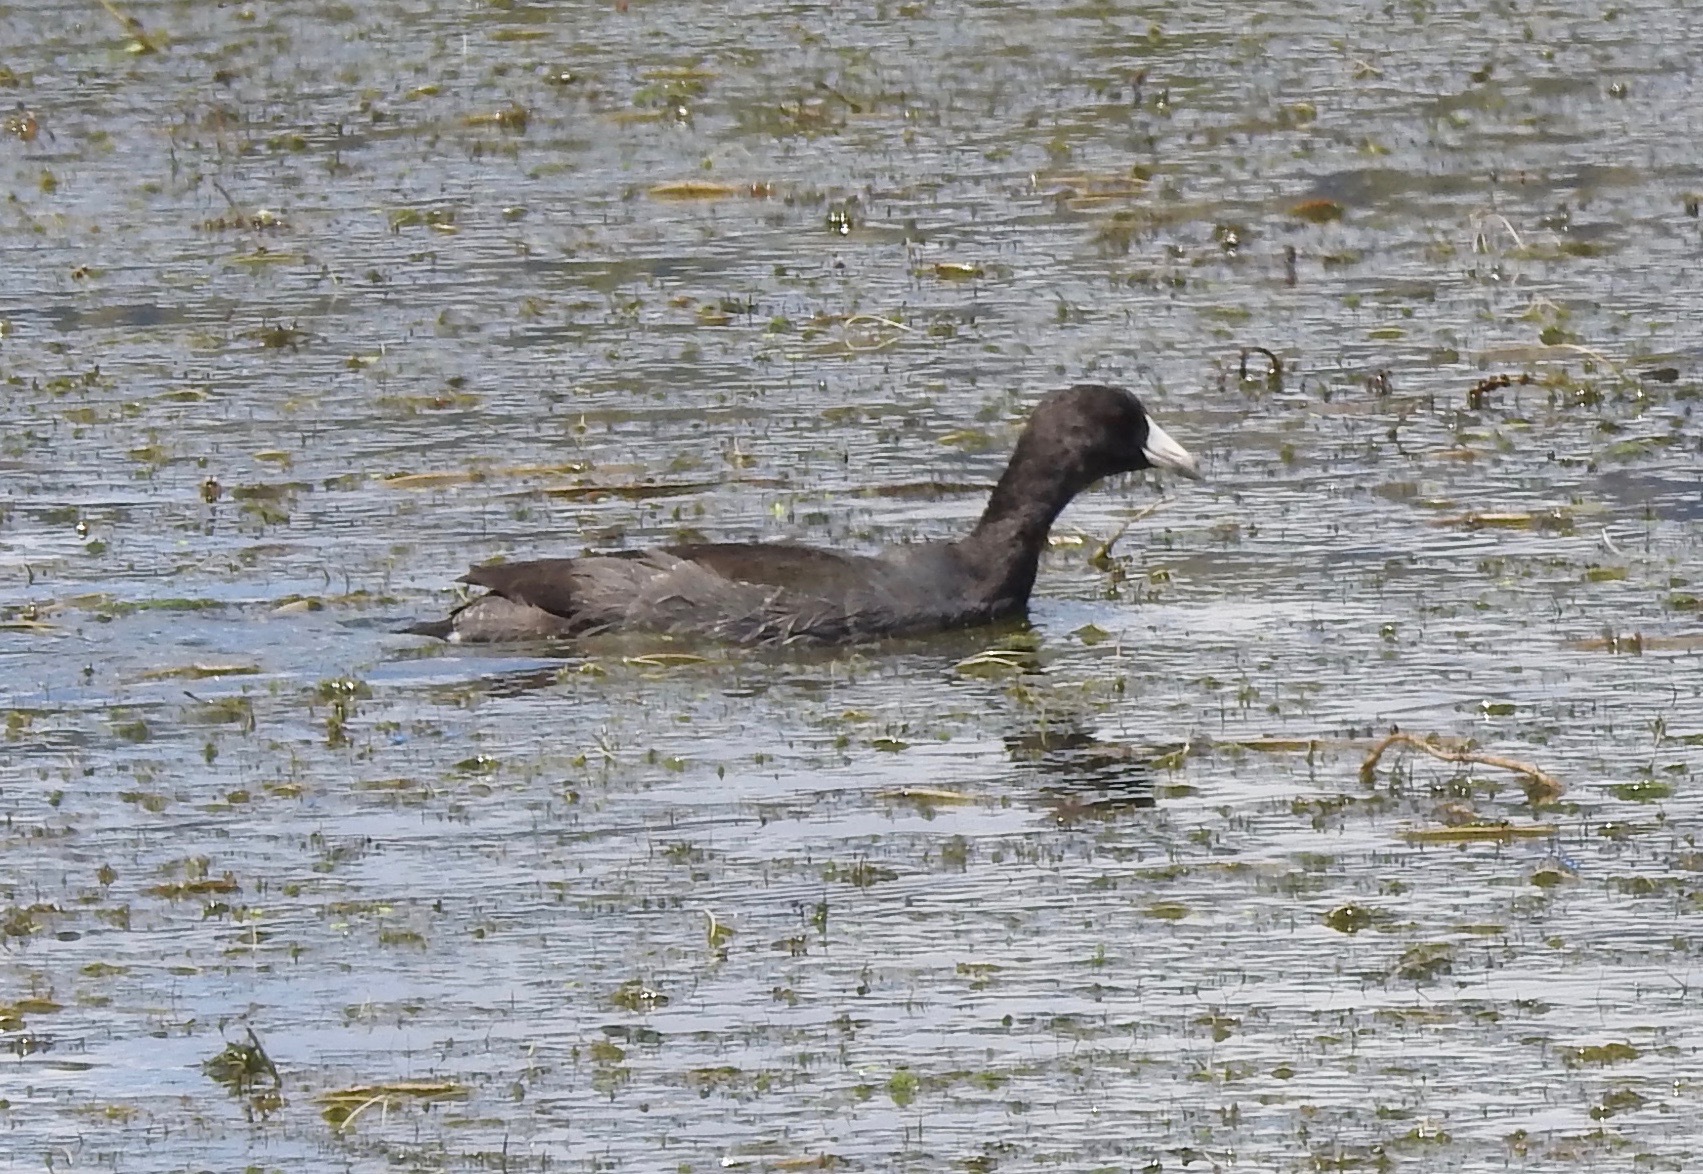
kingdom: Animalia
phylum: Chordata
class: Aves
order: Gruiformes
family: Rallidae
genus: Fulica
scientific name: Fulica americana
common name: American coot
